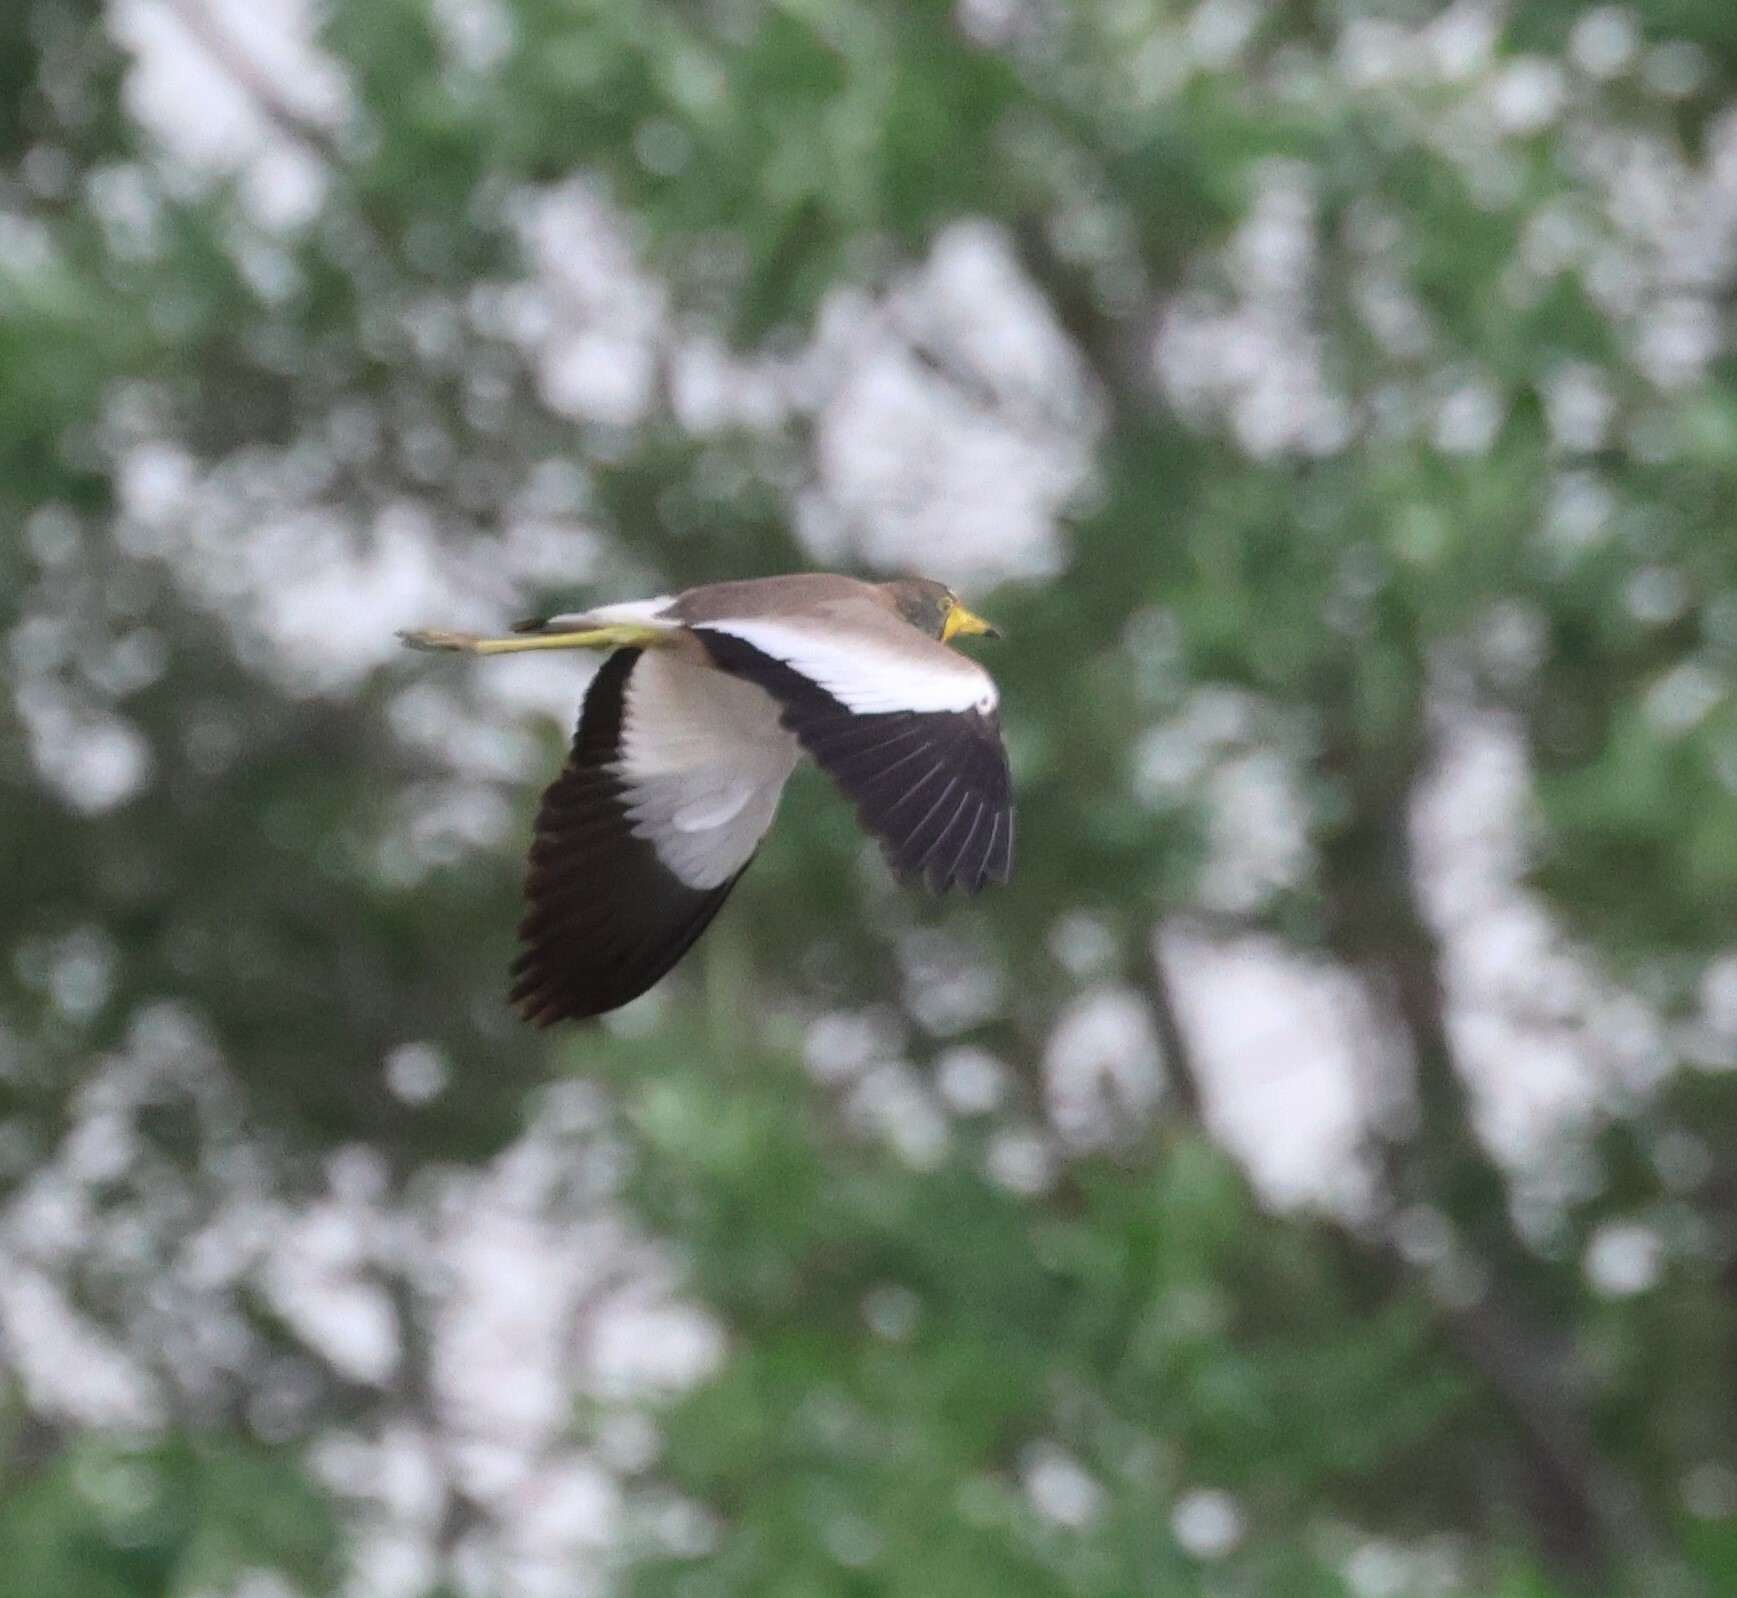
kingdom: Animalia
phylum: Chordata
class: Aves
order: Charadriiformes
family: Charadriidae
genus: Vanellus
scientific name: Vanellus senegallus
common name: African wattled lapwing
